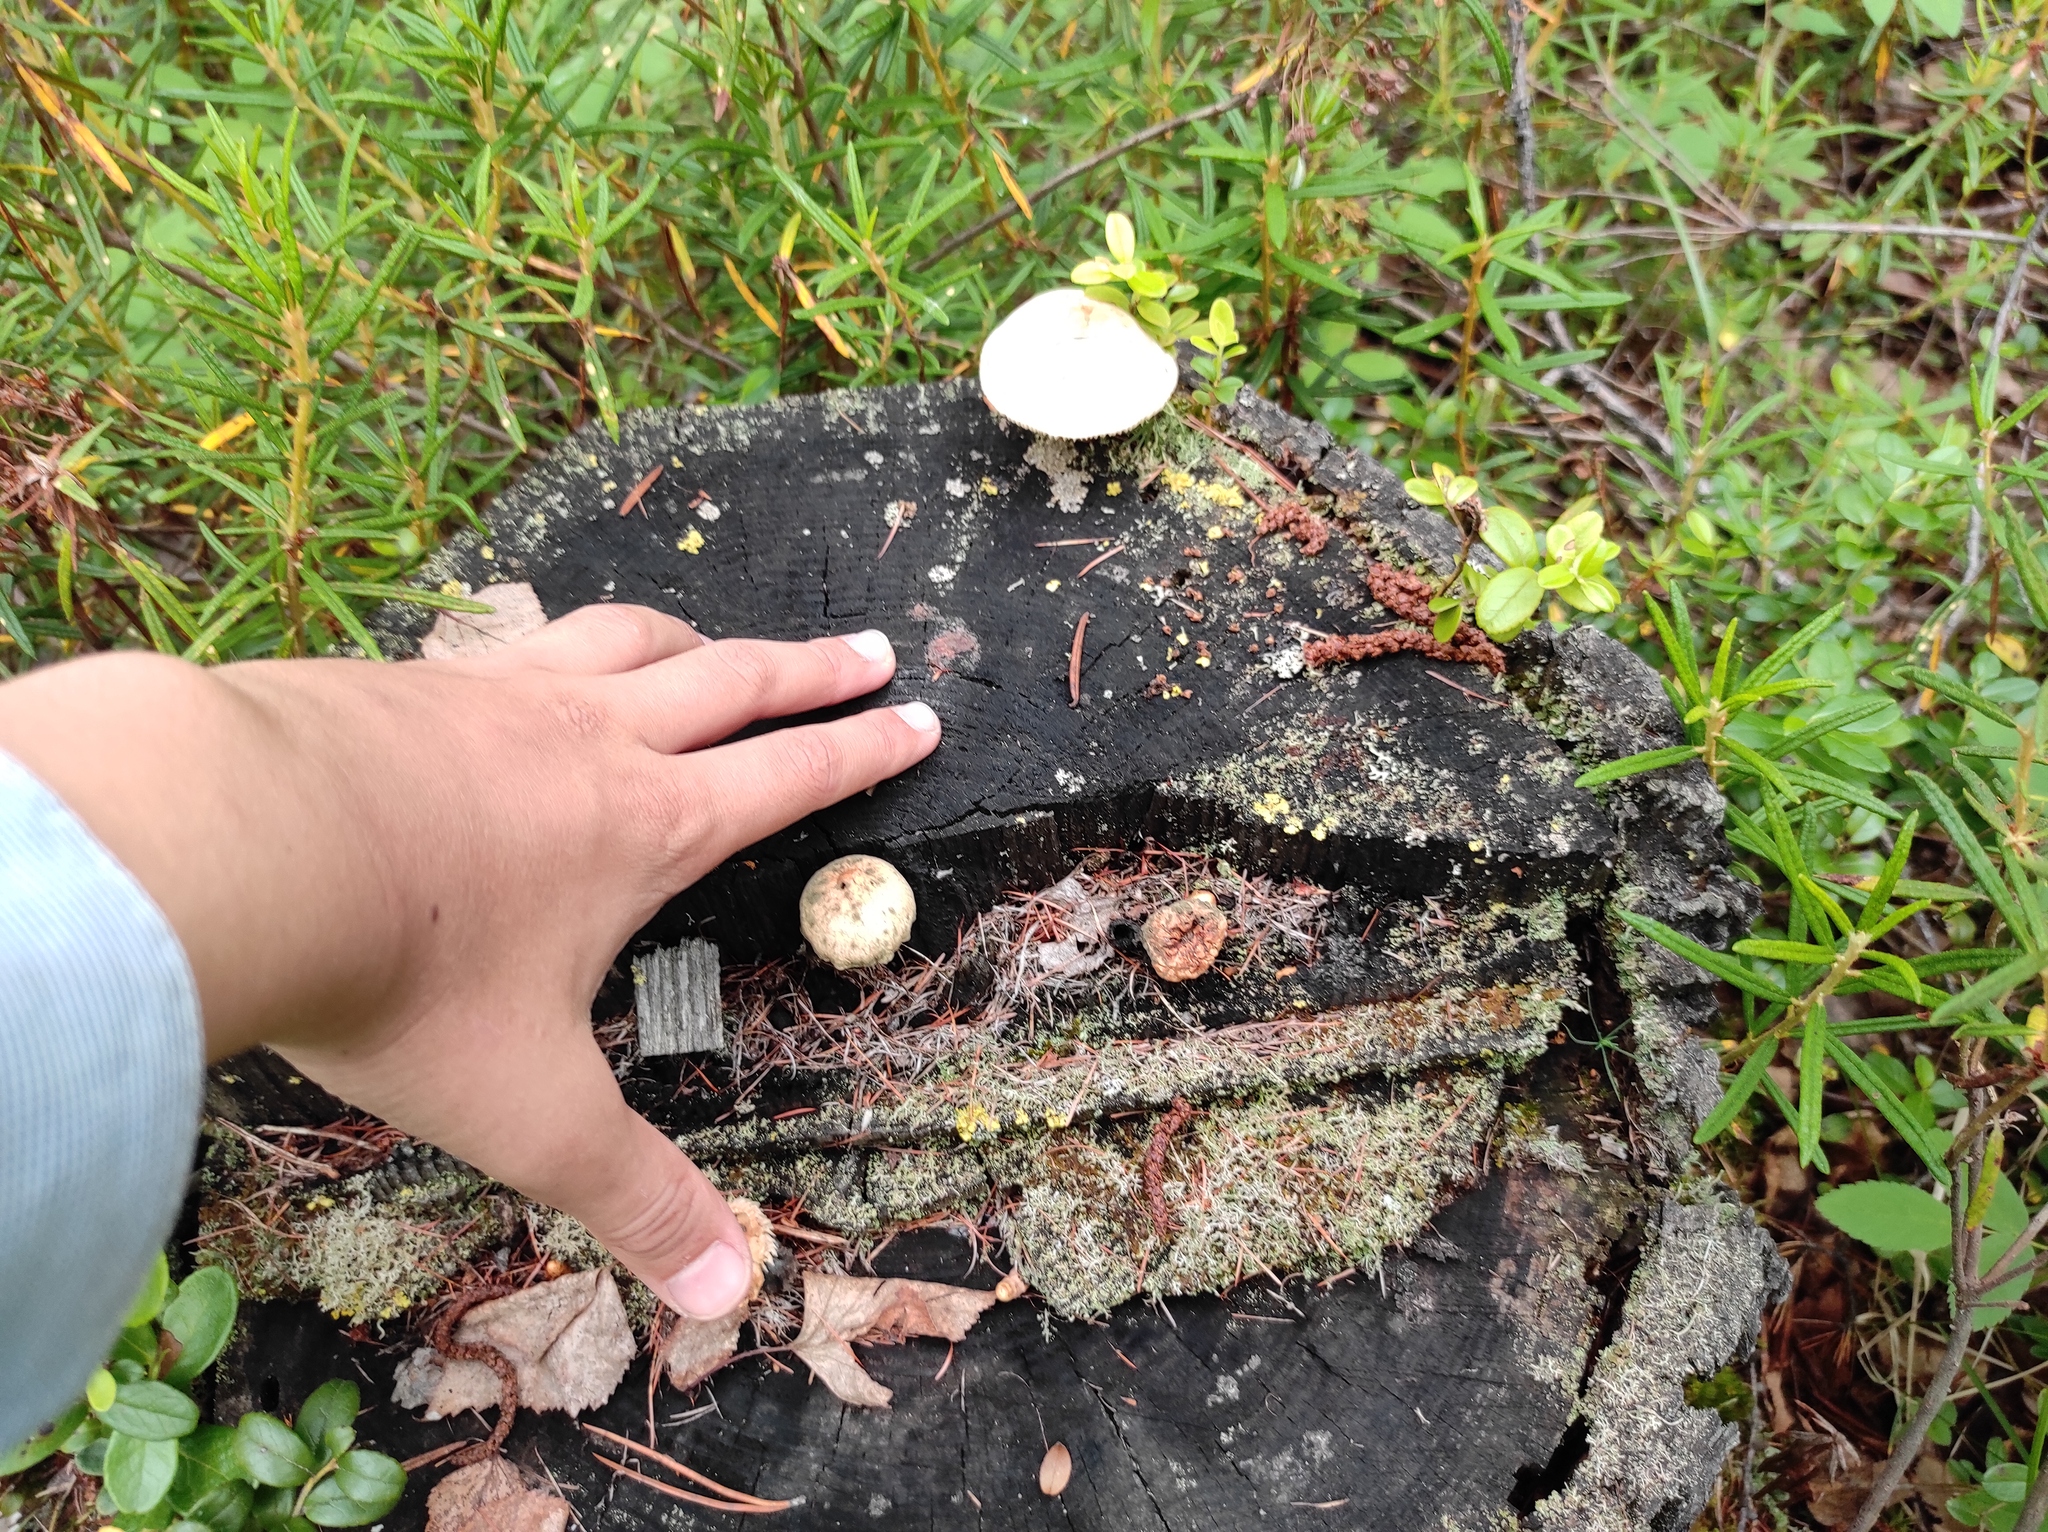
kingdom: Plantae
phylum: Tracheophyta
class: Magnoliopsida
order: Ericales
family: Ericaceae
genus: Rhododendron
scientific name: Rhododendron tomentosum
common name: Marsh labrador tea
